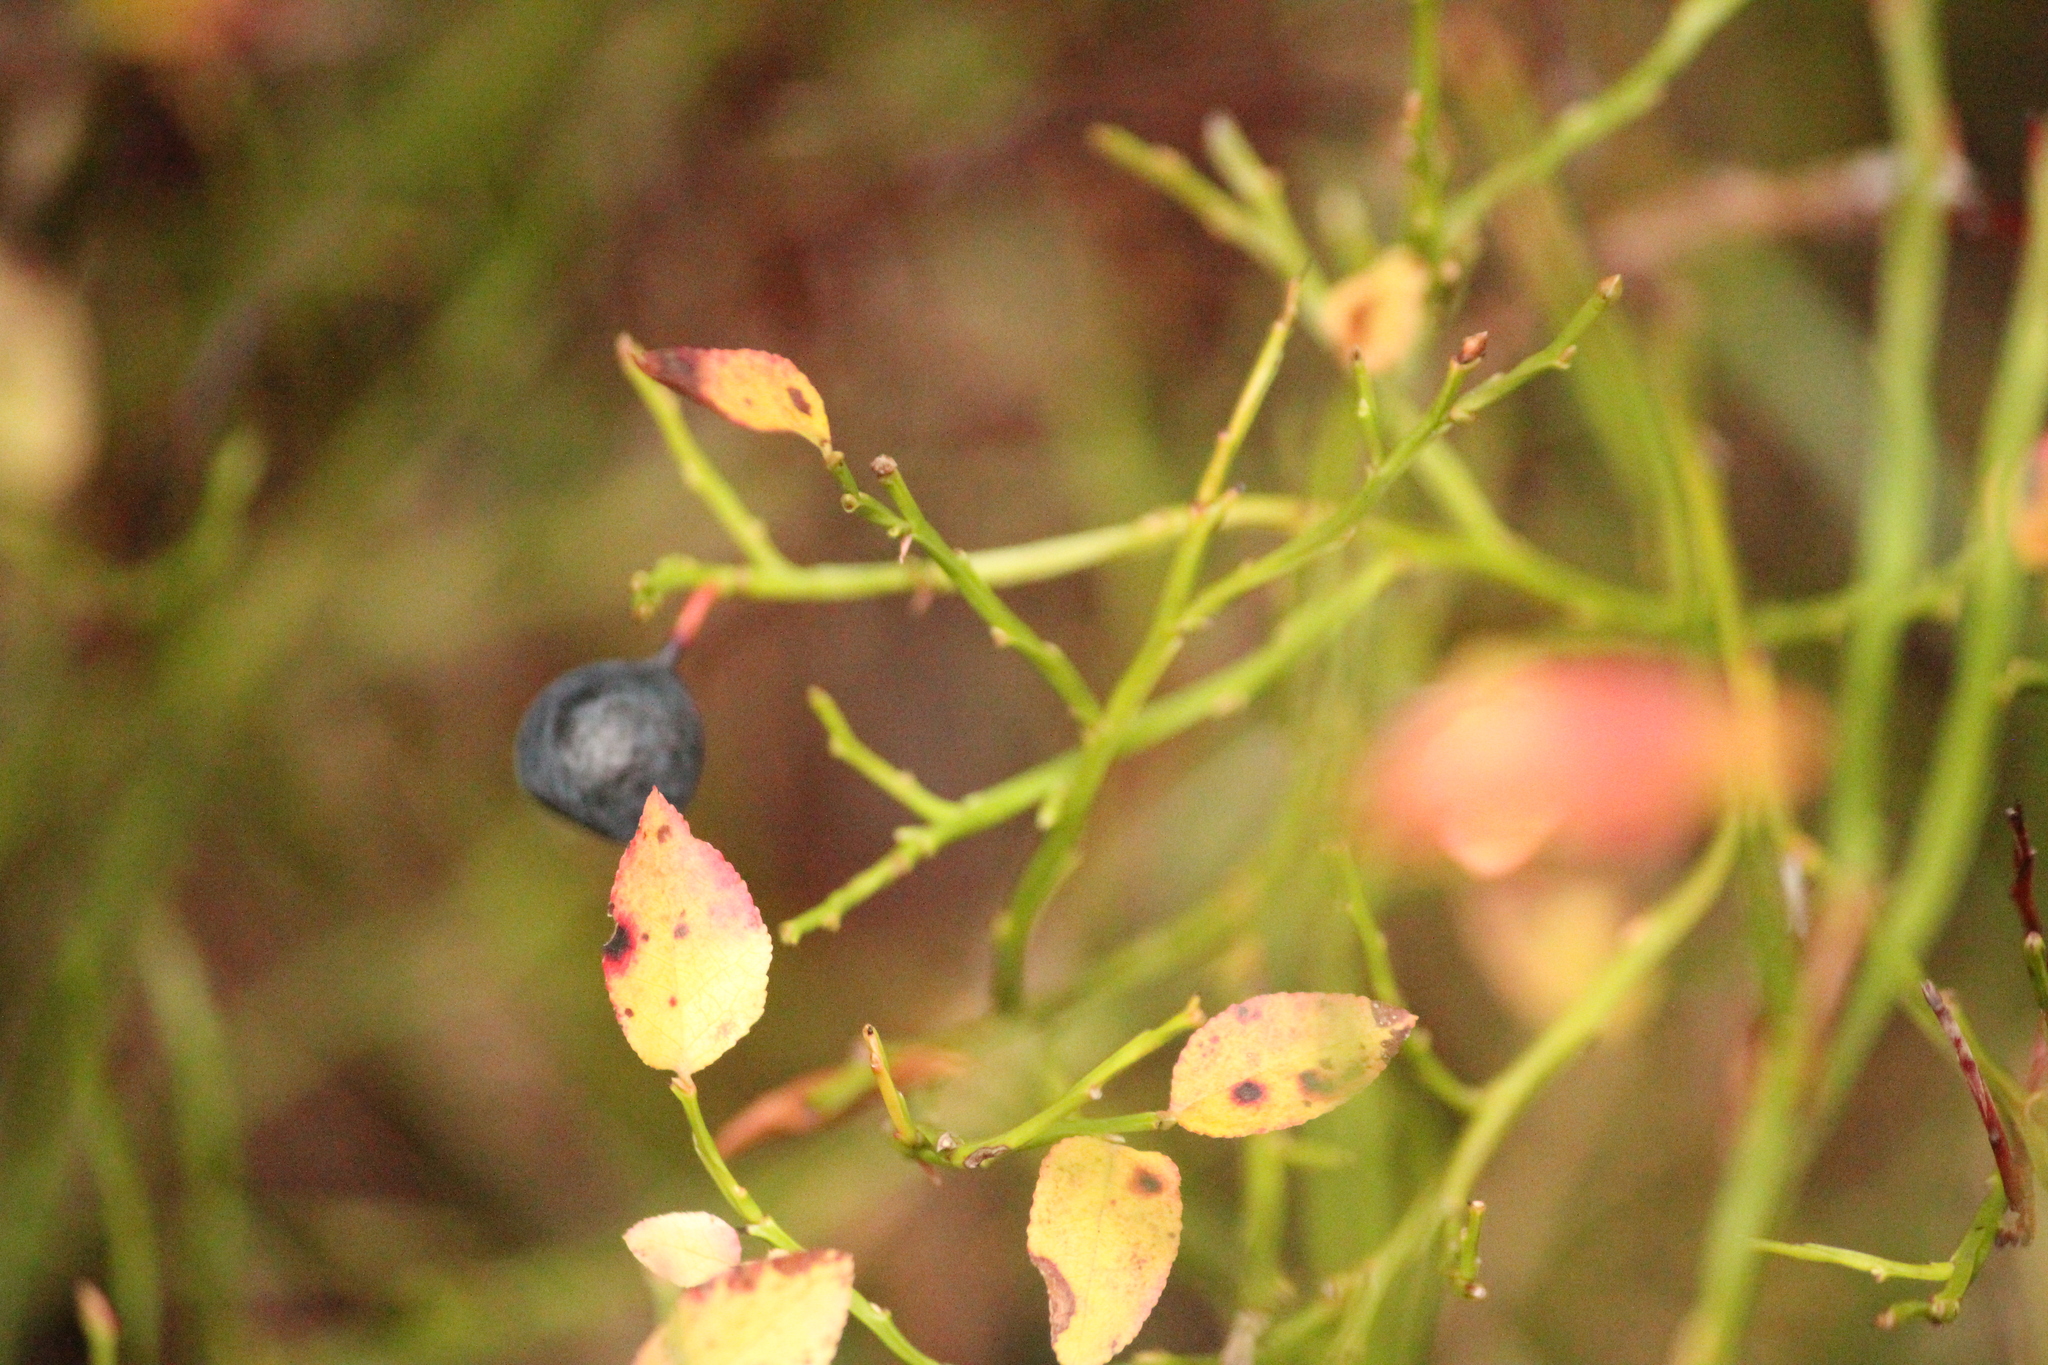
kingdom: Plantae
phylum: Tracheophyta
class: Magnoliopsida
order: Ericales
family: Ericaceae
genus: Vaccinium
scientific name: Vaccinium myrtillus
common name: Bilberry
